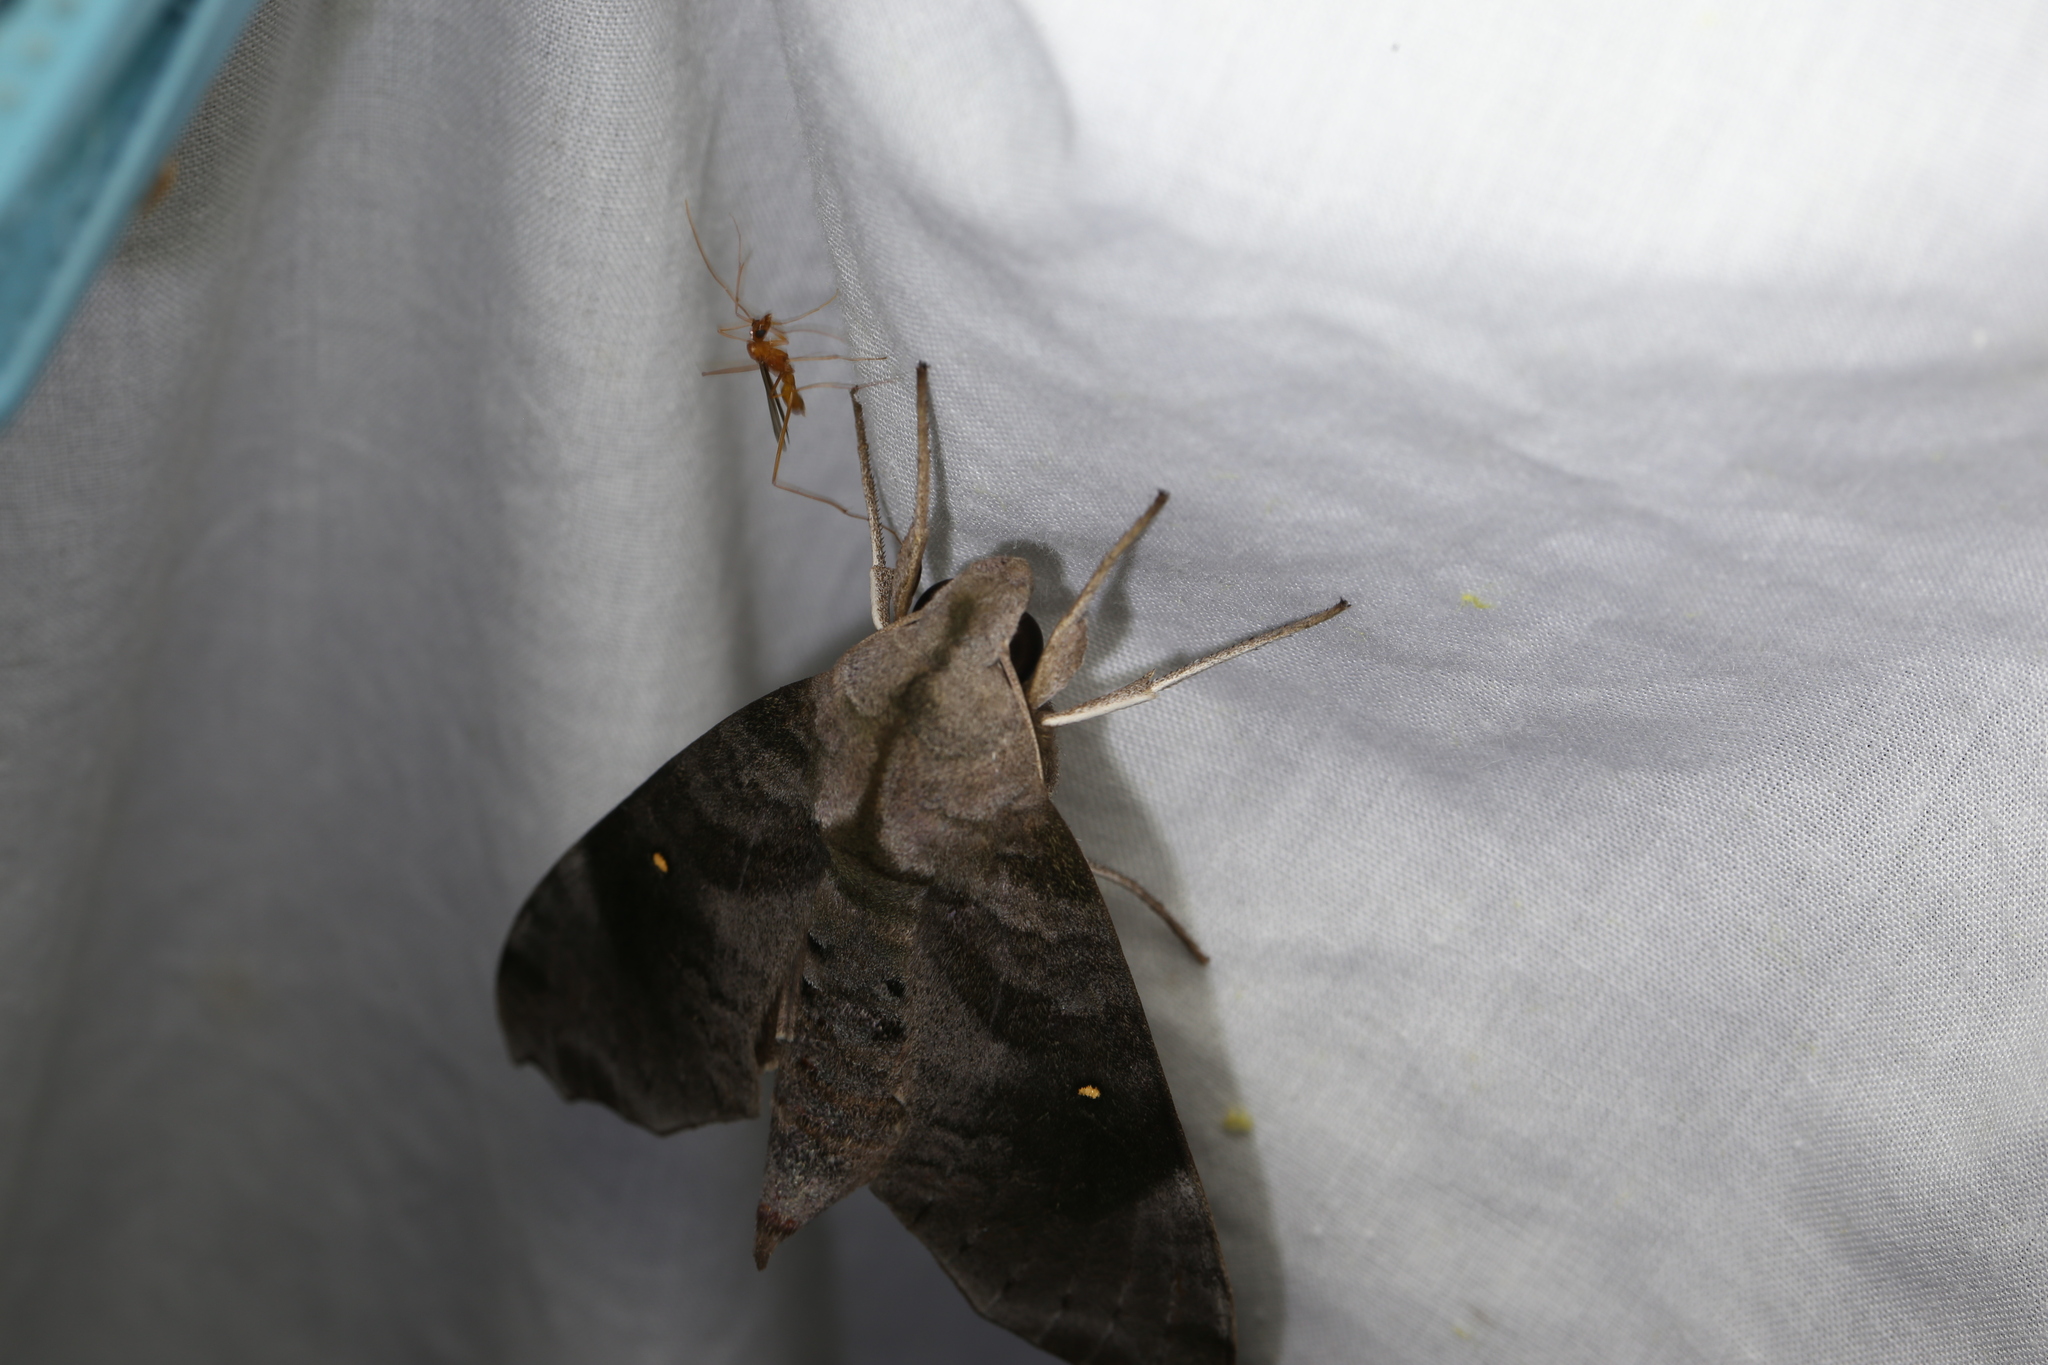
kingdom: Animalia
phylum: Arthropoda
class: Insecta
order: Lepidoptera
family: Sphingidae
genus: Acosmeryx
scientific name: Acosmeryx miskini
